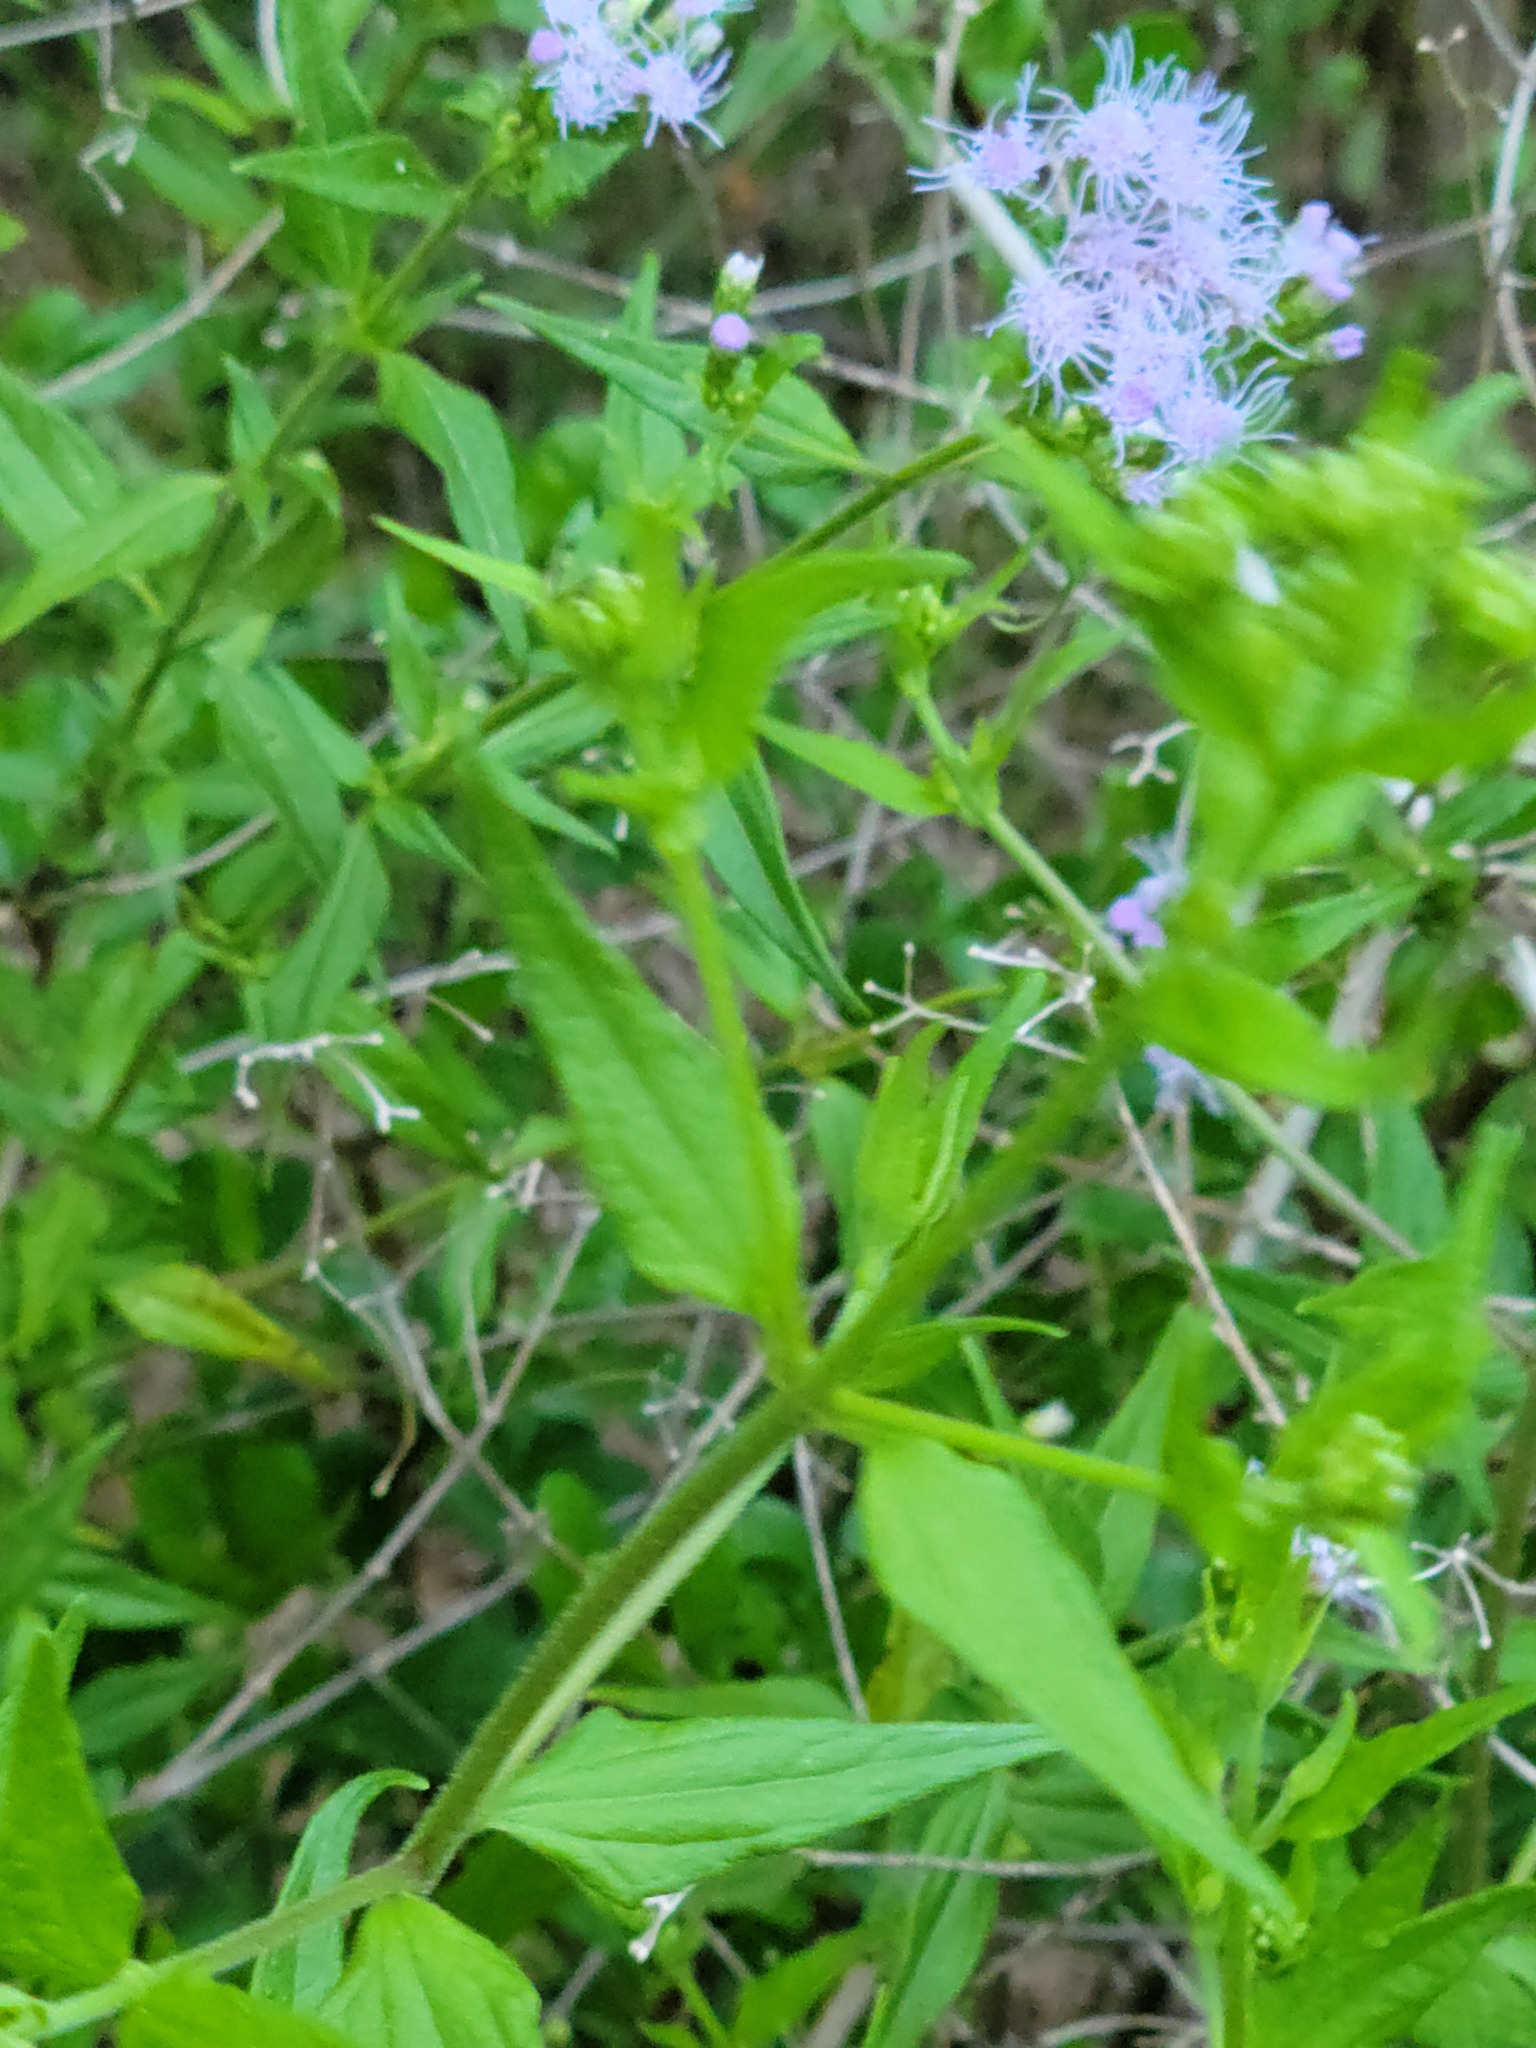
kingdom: Plantae
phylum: Tracheophyta
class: Magnoliopsida
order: Asterales
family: Asteraceae
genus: Chromolaena
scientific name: Chromolaena odorata
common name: Siamweed
